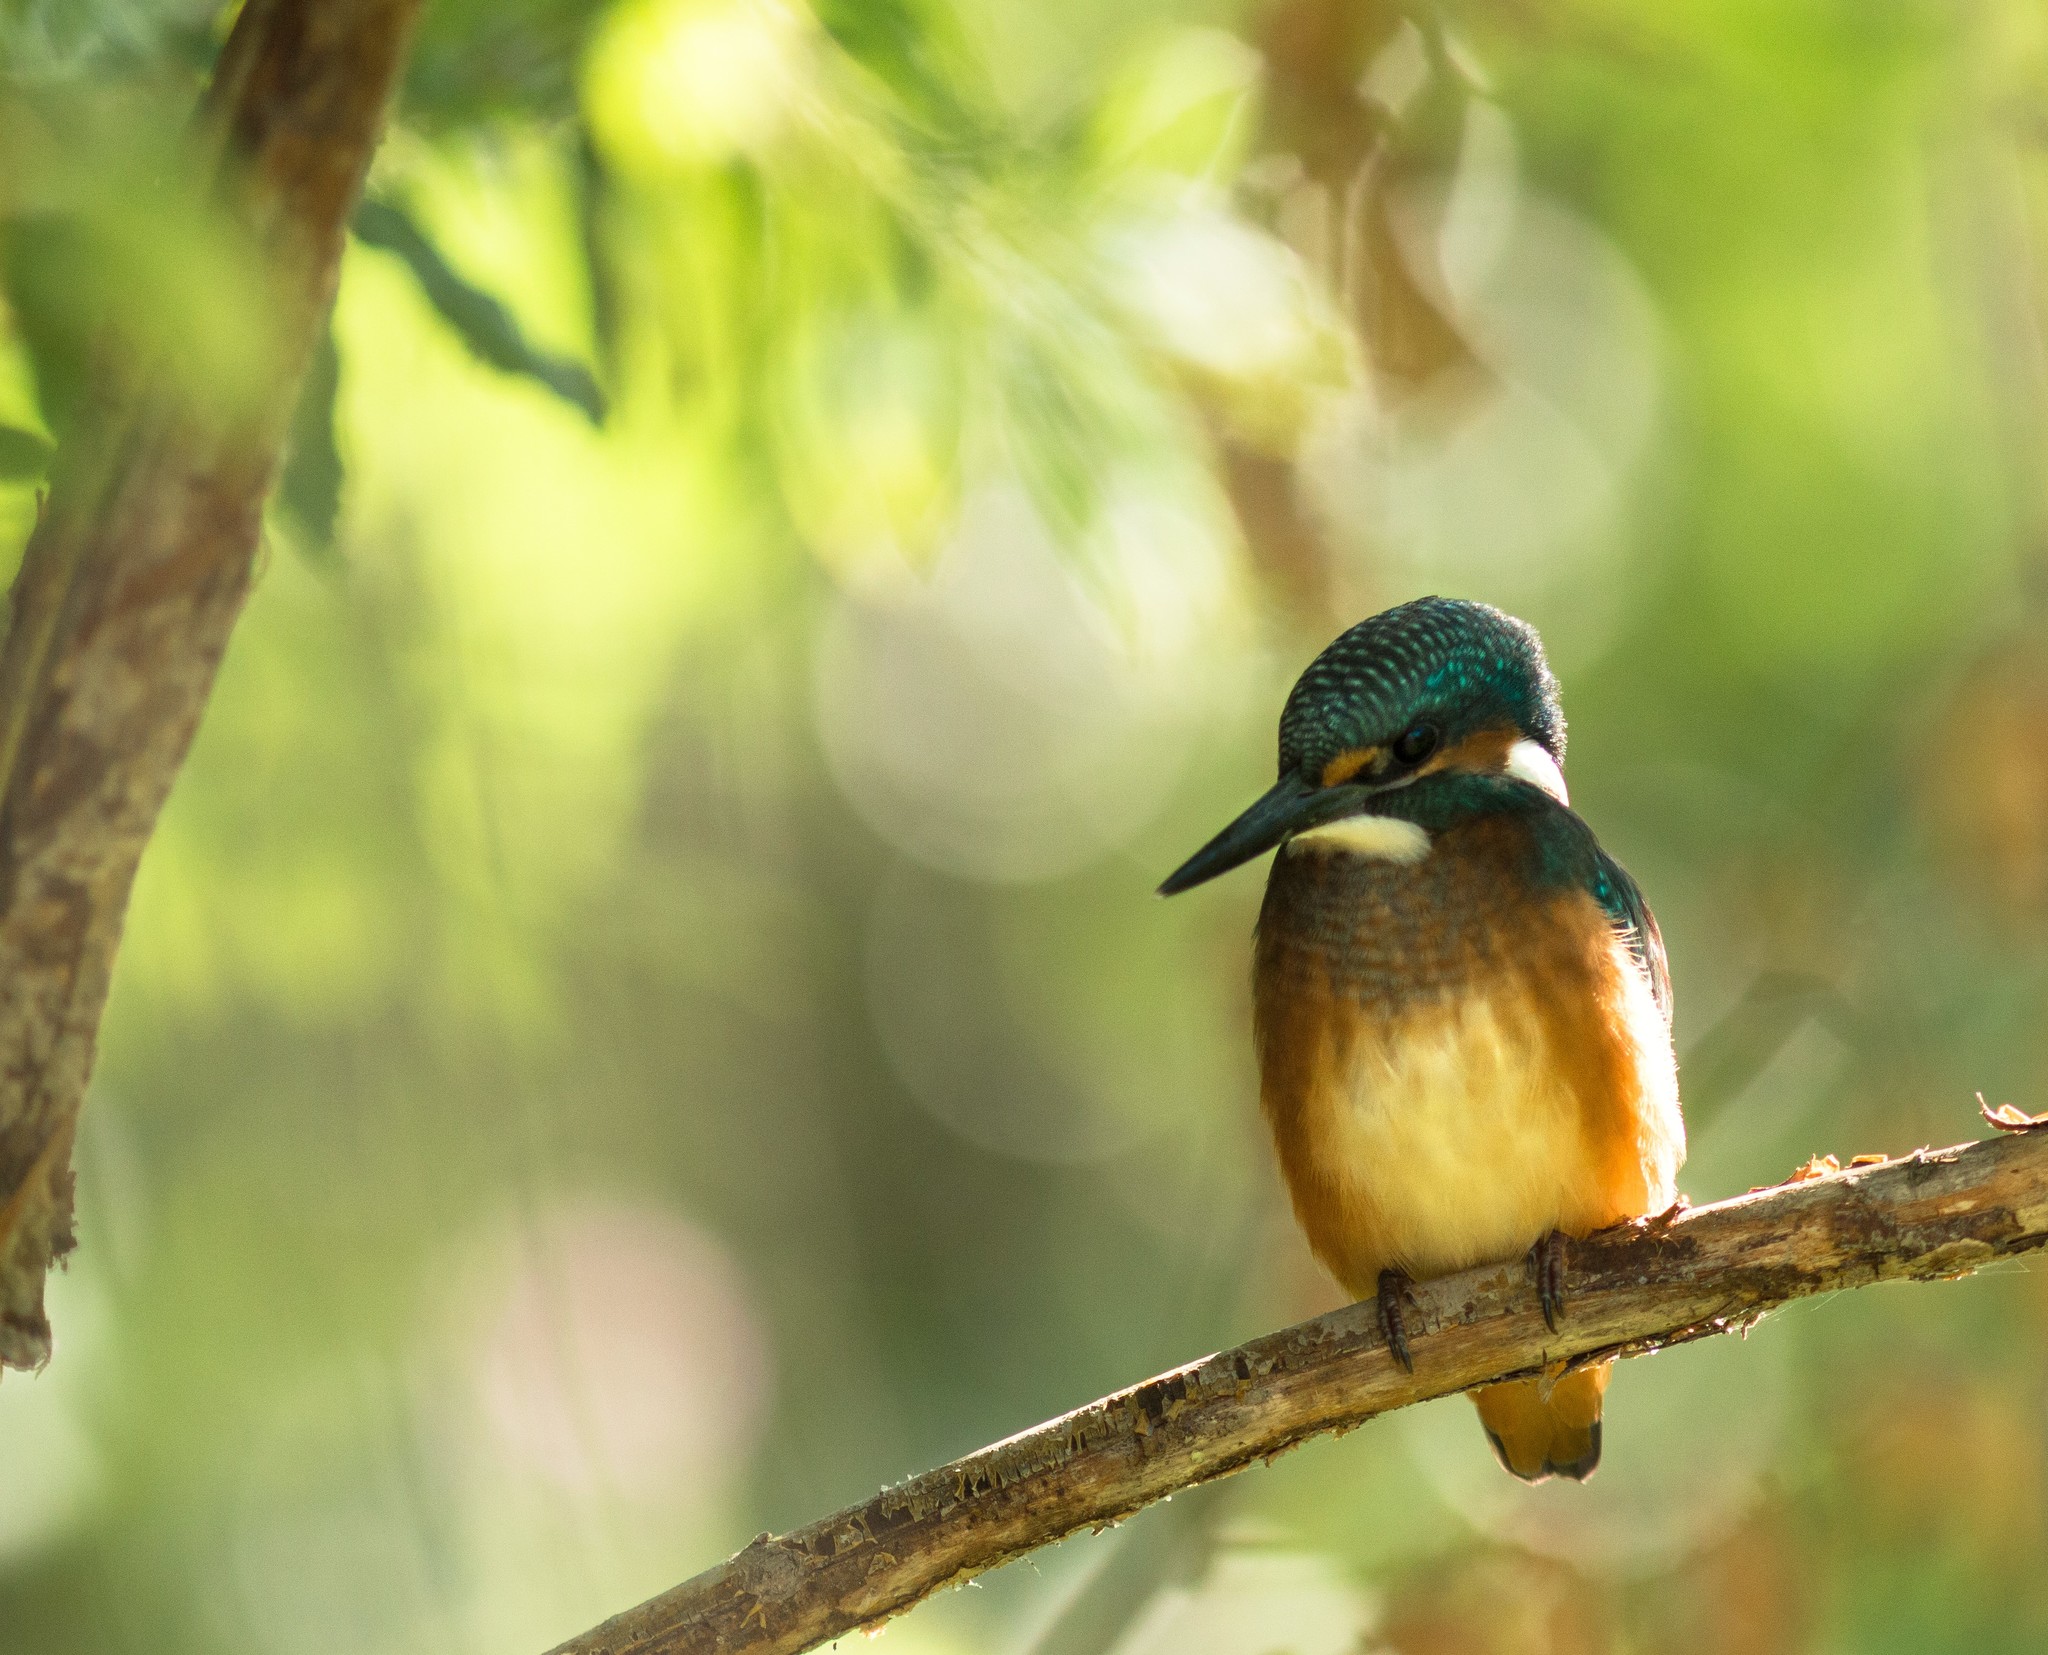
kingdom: Animalia
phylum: Chordata
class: Aves
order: Coraciiformes
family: Alcedinidae
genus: Alcedo
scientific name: Alcedo atthis
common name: Common kingfisher
